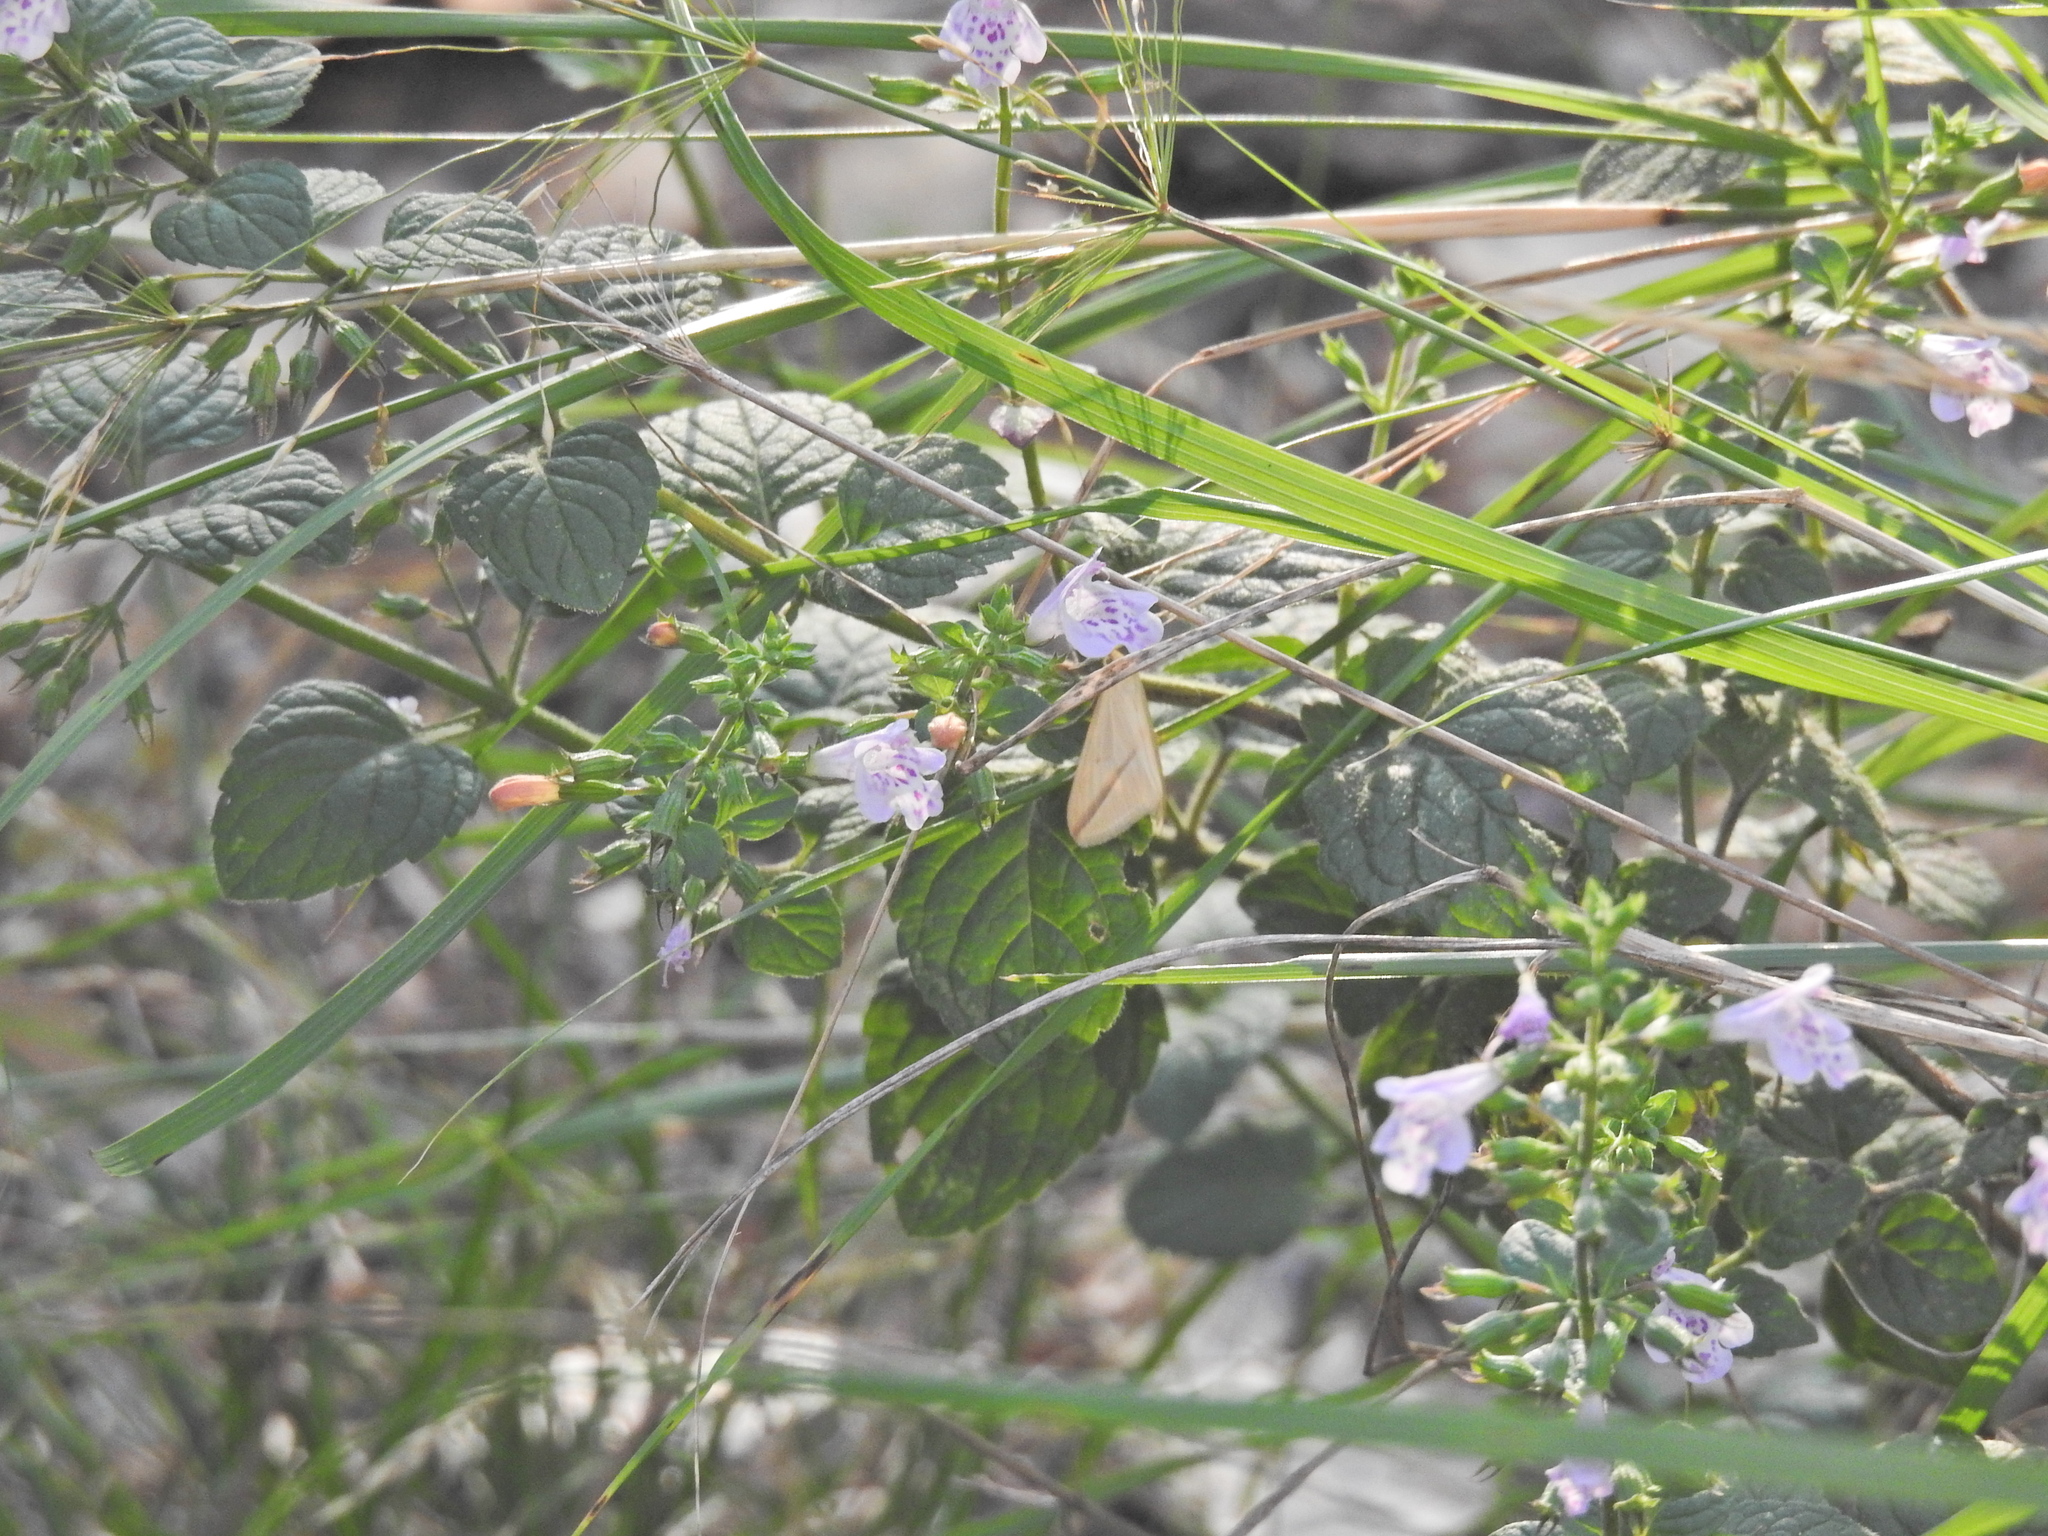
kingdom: Plantae
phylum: Tracheophyta
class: Magnoliopsida
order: Lamiales
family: Lamiaceae
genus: Clinopodium
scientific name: Clinopodium
